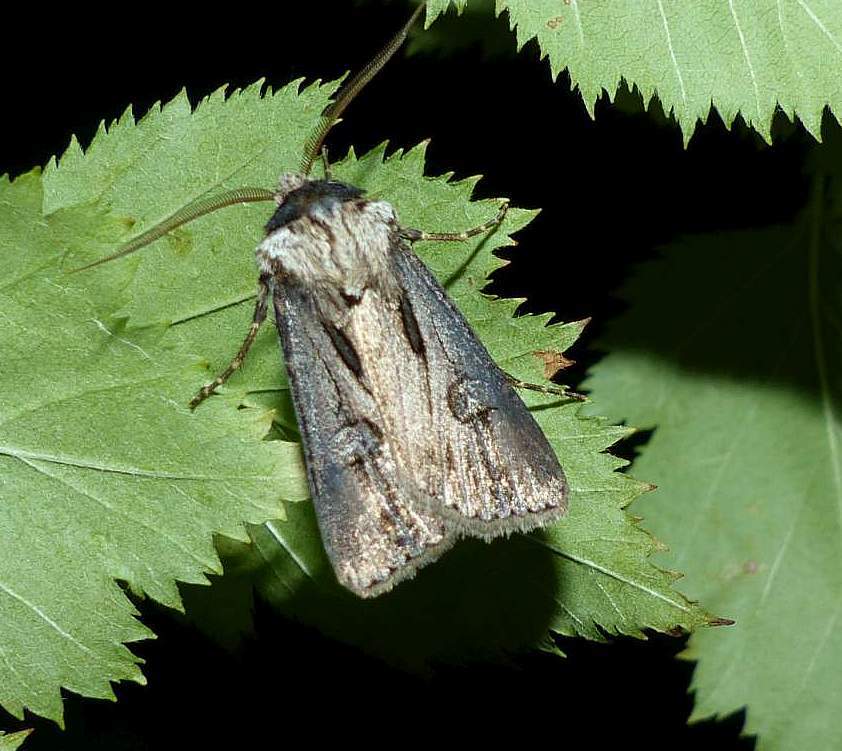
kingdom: Animalia
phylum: Arthropoda
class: Insecta
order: Lepidoptera
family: Noctuidae
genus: Agrotis
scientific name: Agrotis venerabilis
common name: Venerable dart
